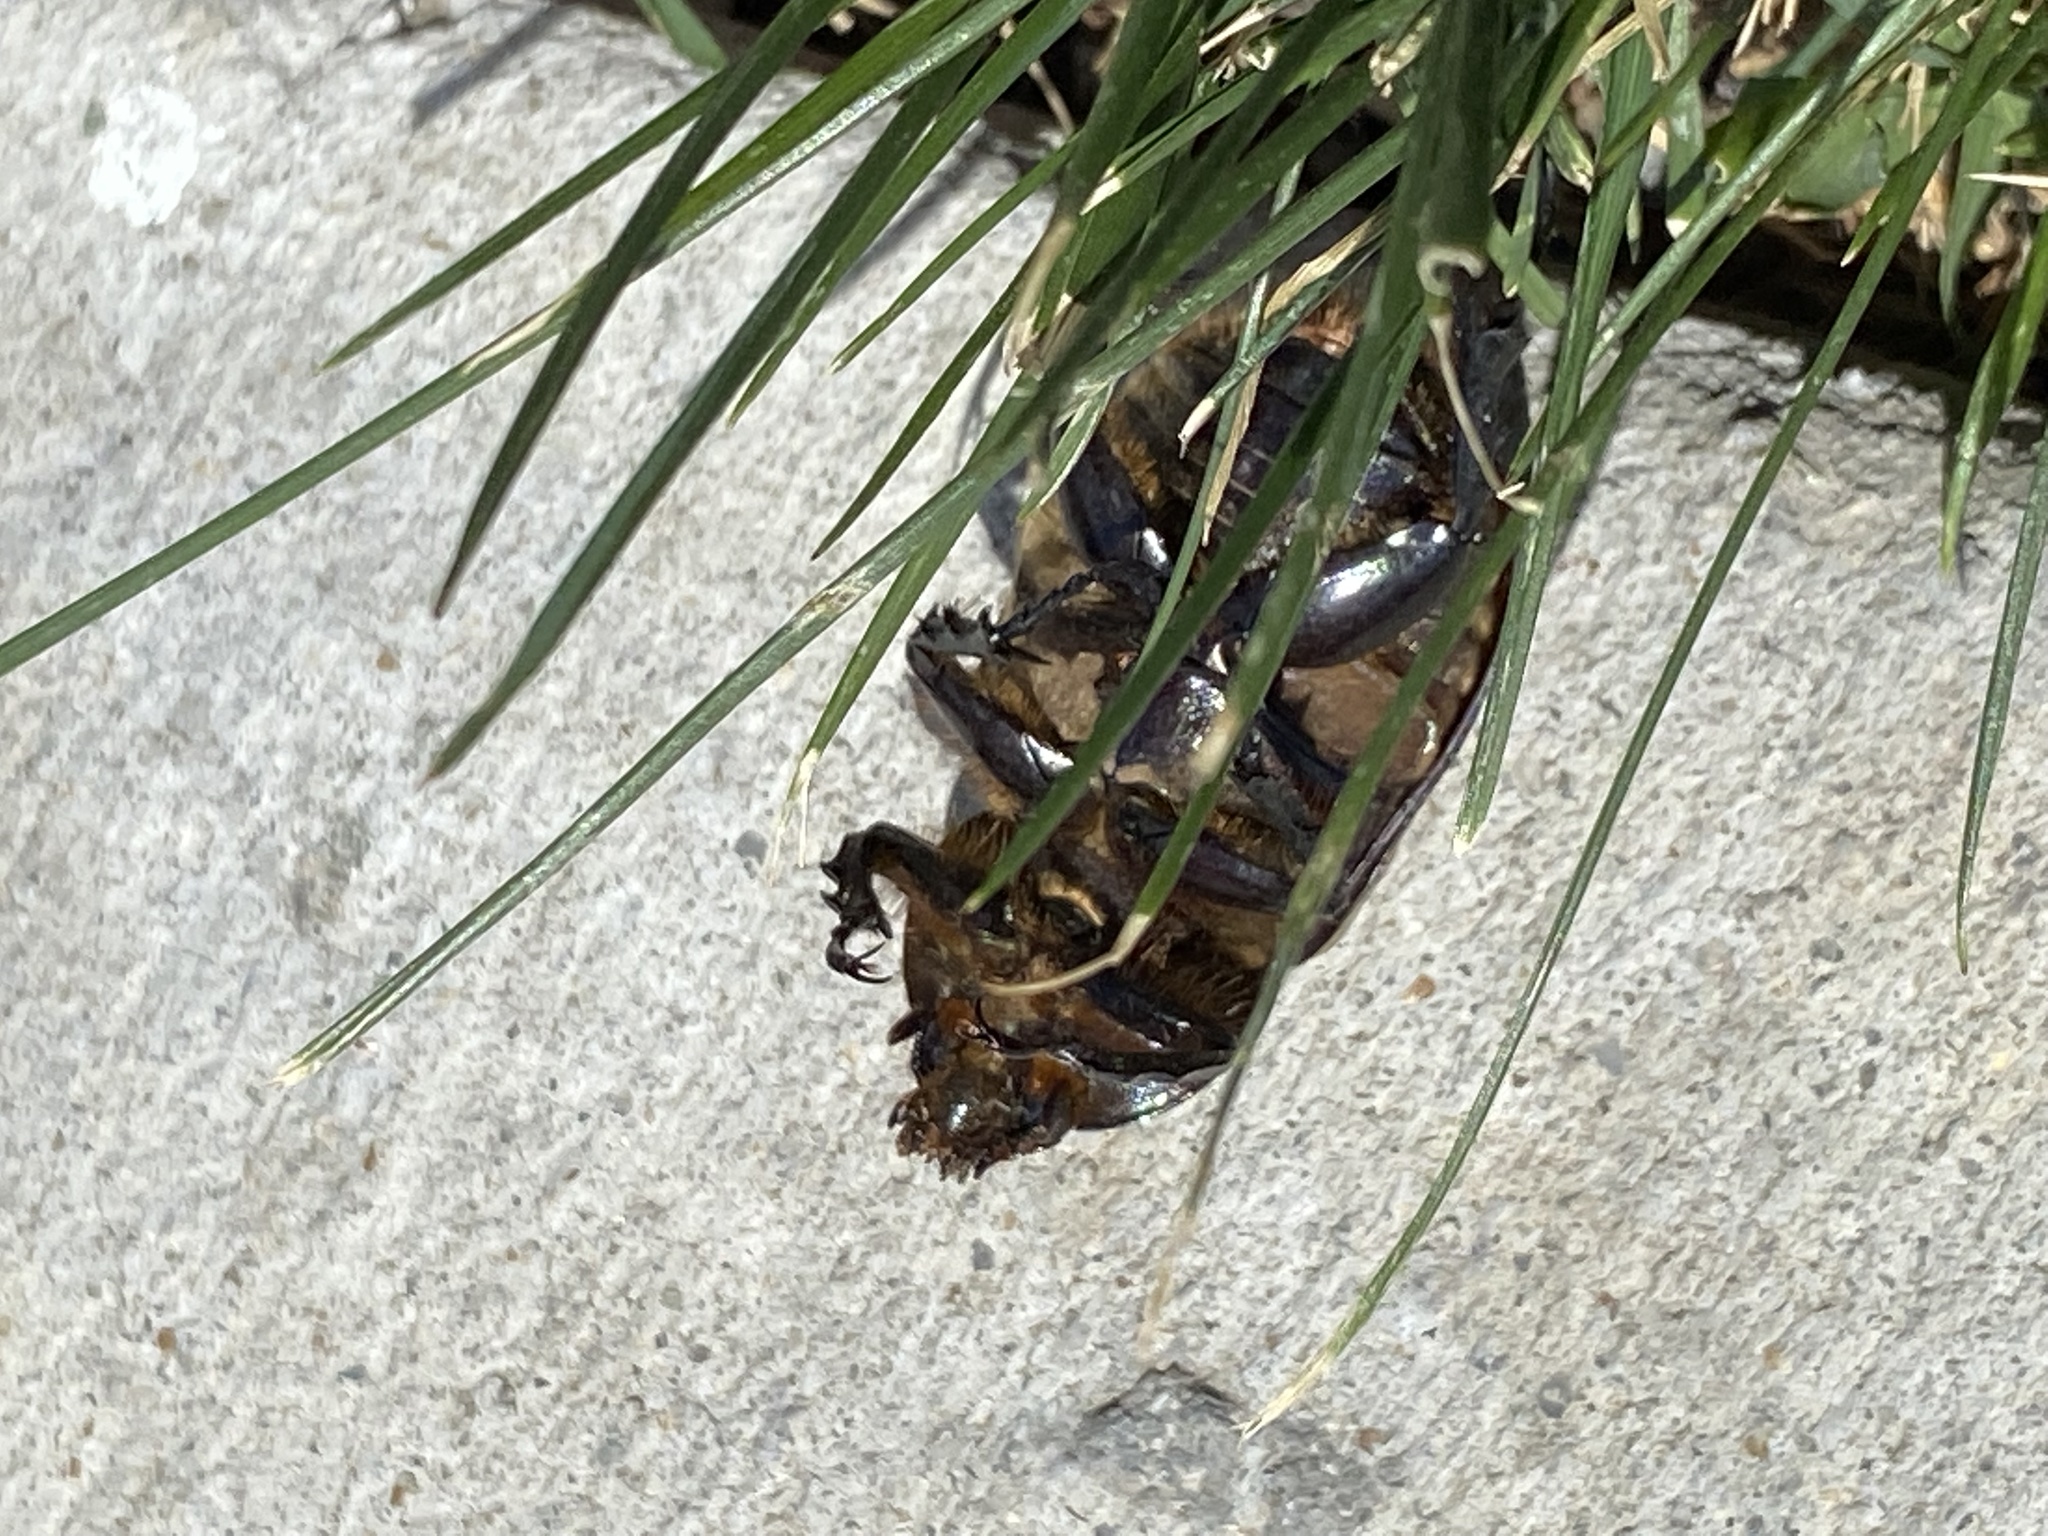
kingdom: Animalia
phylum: Arthropoda
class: Insecta
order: Coleoptera
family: Scarabaeidae
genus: Dynastes
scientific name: Dynastes tityus
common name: Eastern hercules beetle
